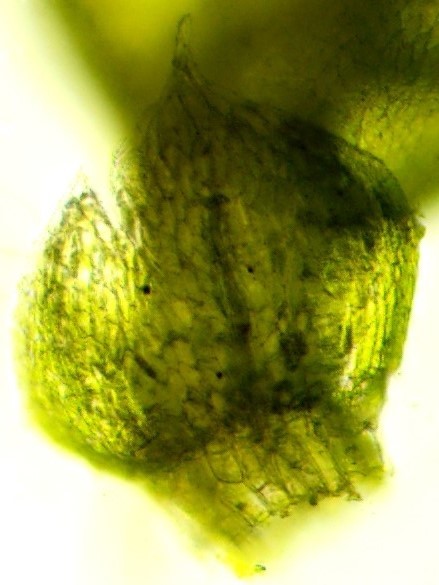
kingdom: Plantae
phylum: Bryophyta
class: Bryopsida
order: Bryales
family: Bryaceae
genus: Bryum
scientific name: Bryum argenteum
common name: Silver-moss
